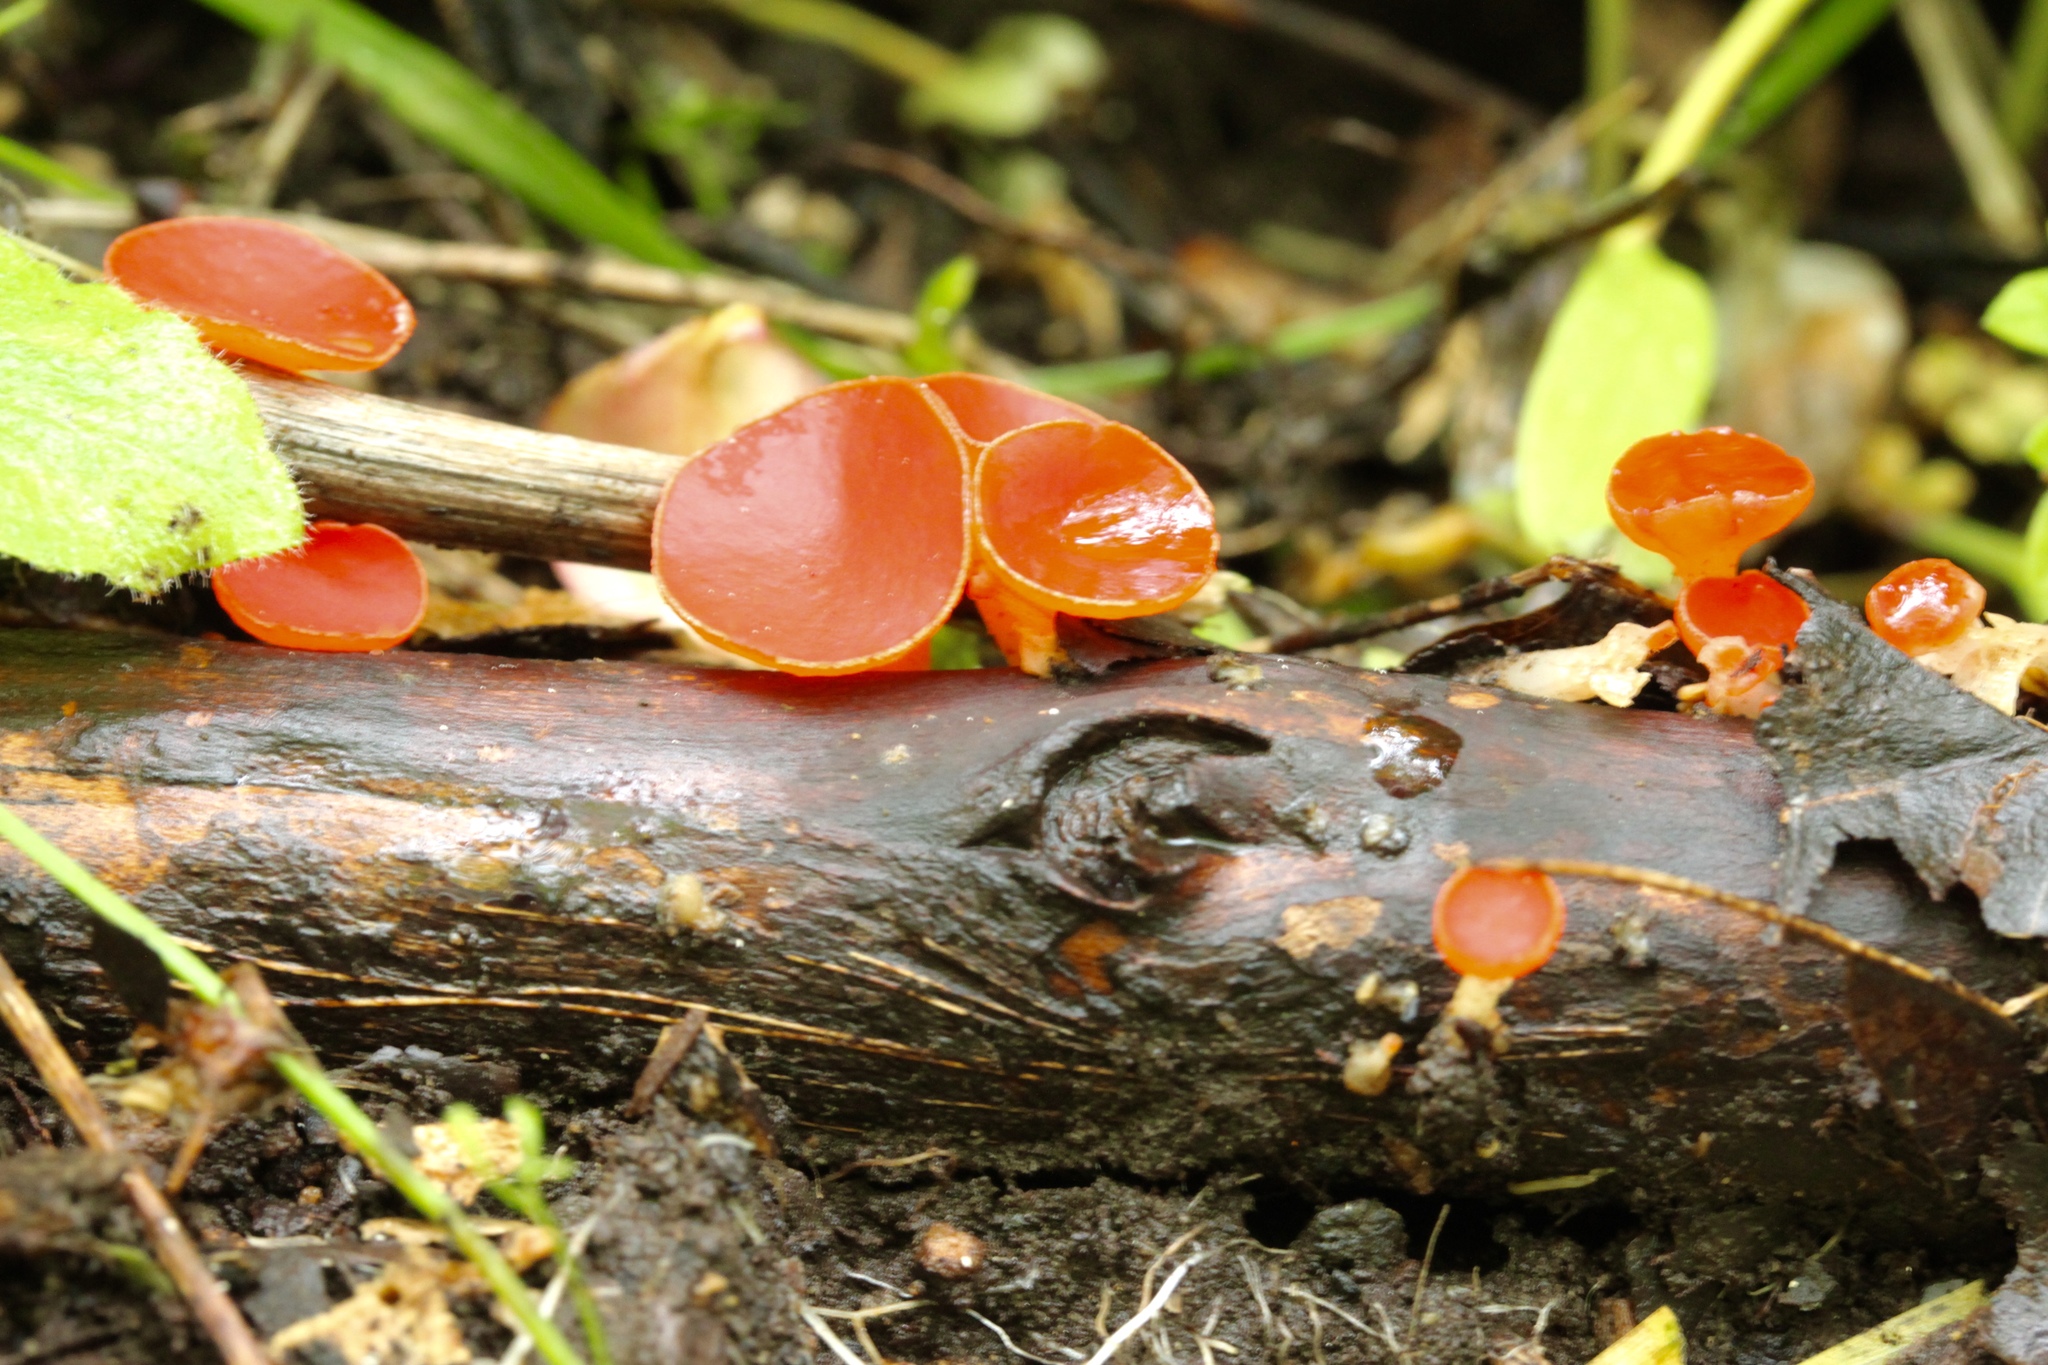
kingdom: Fungi
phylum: Ascomycota
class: Pezizomycetes
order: Pezizales
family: Sarcoscyphaceae
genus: Sarcoscypha
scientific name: Sarcoscypha occidentalis
